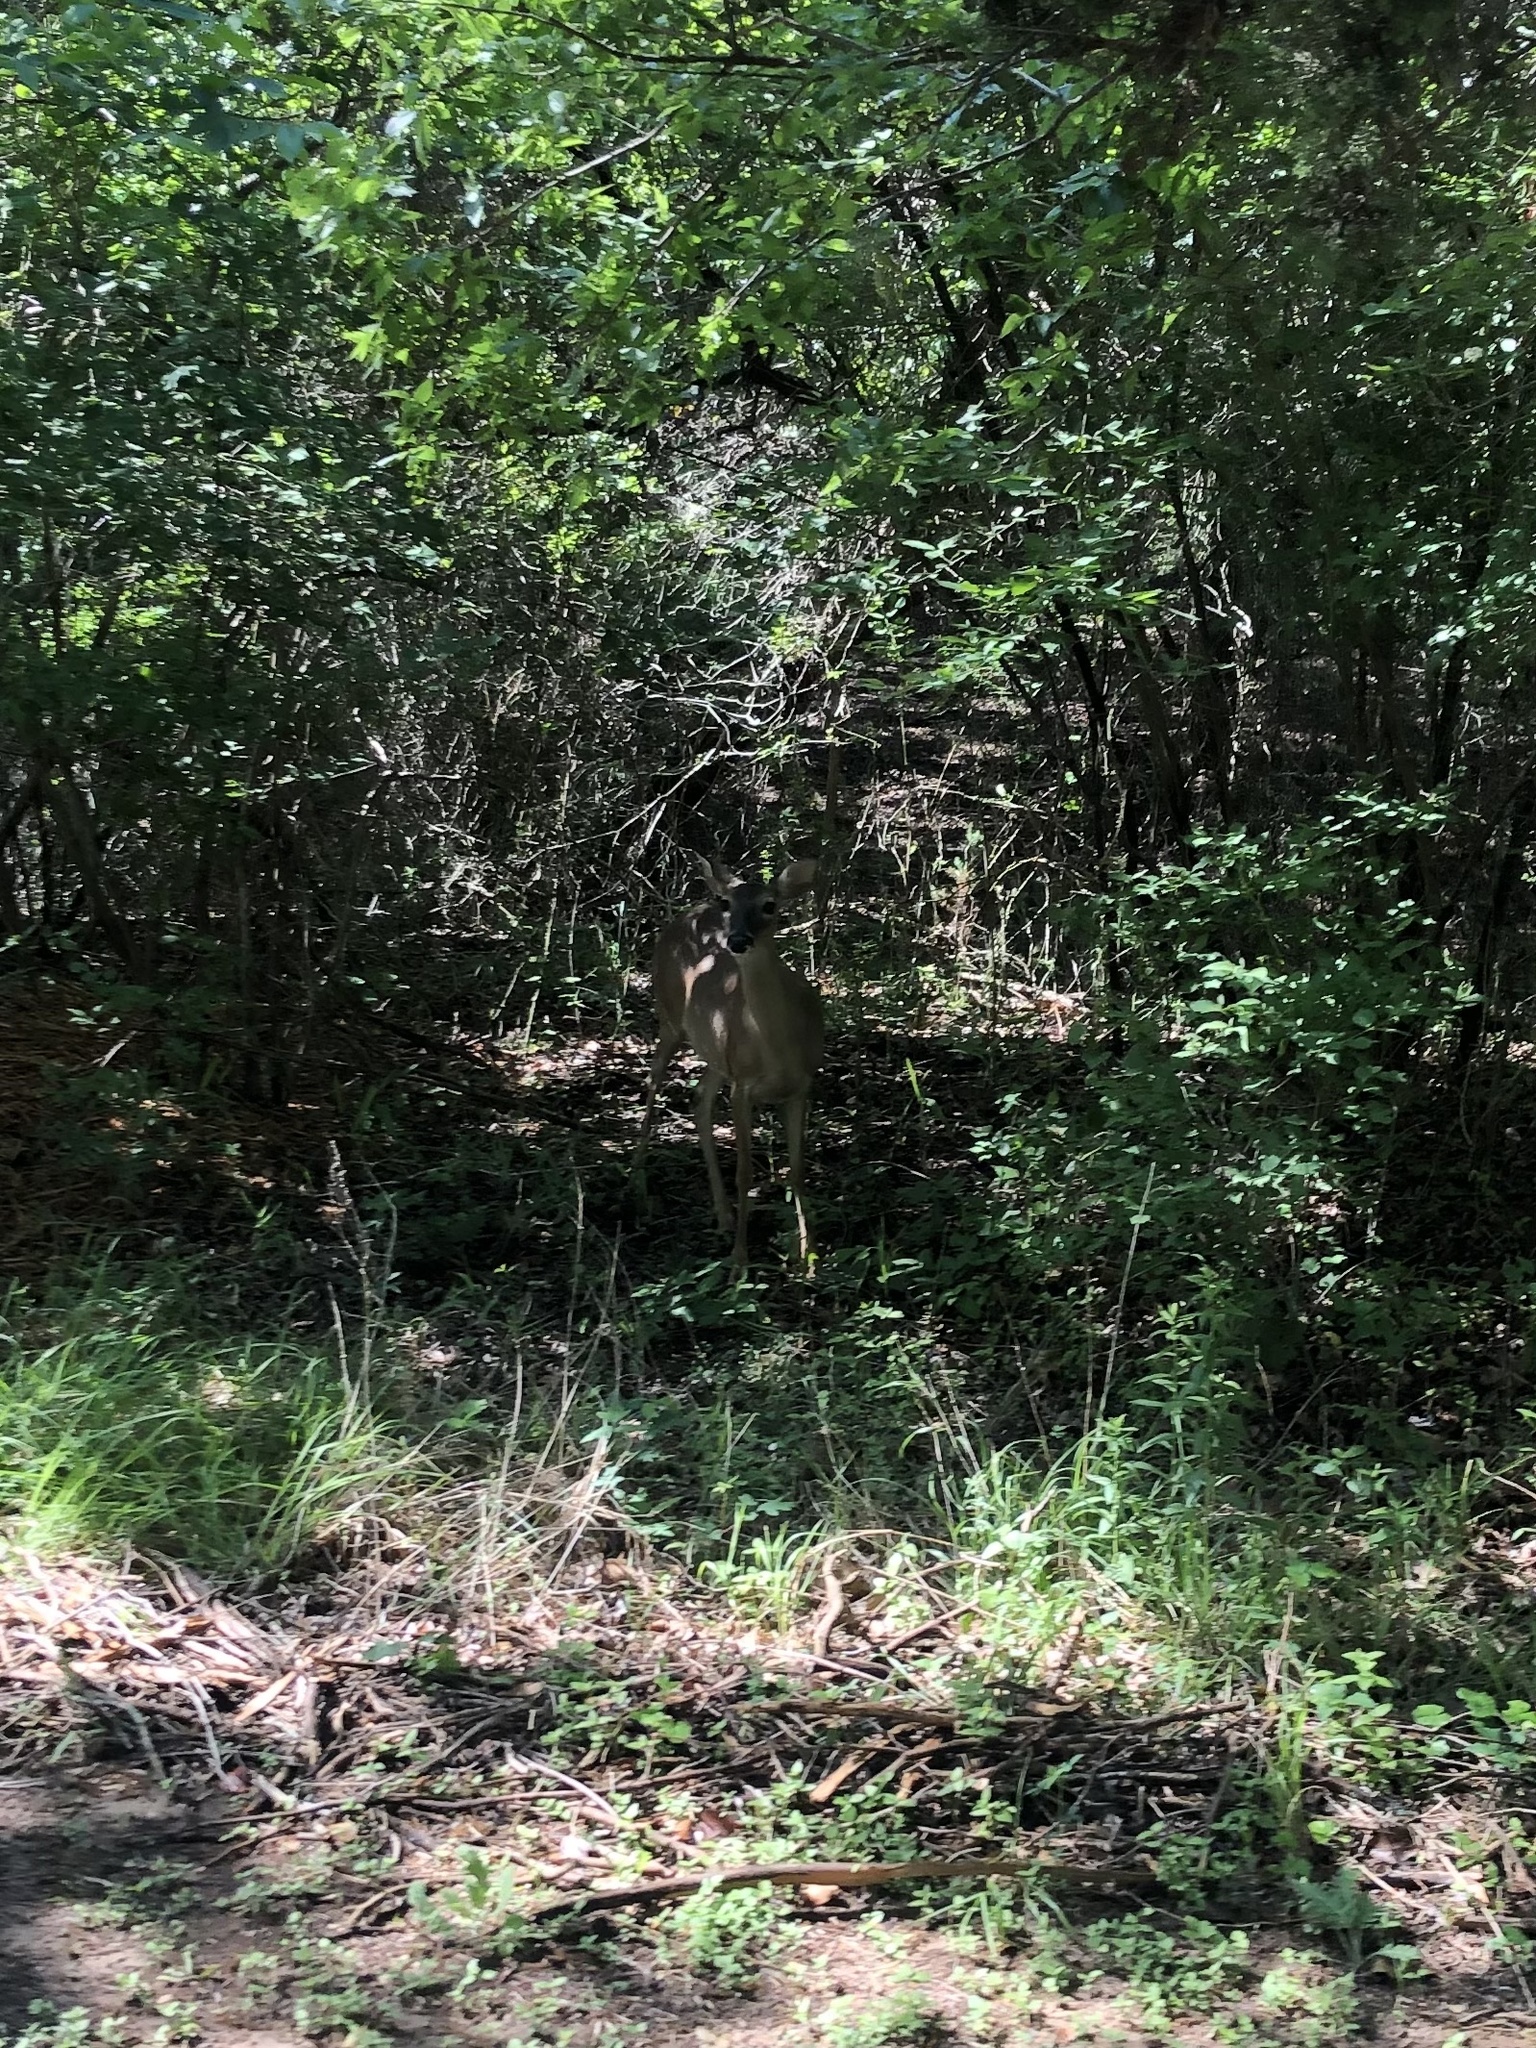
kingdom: Animalia
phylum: Chordata
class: Mammalia
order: Artiodactyla
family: Cervidae
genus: Odocoileus
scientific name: Odocoileus virginianus
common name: White-tailed deer
